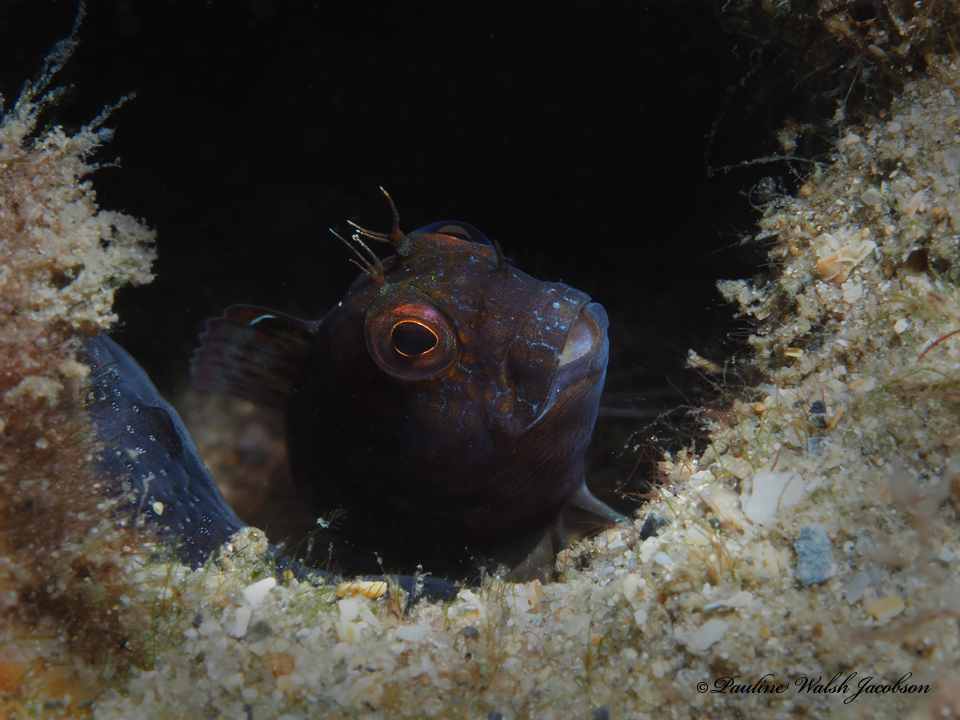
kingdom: Animalia
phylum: Chordata
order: Perciformes
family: Blenniidae
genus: Parablennius
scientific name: Parablennius marmoreus
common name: Seaweed blenny
